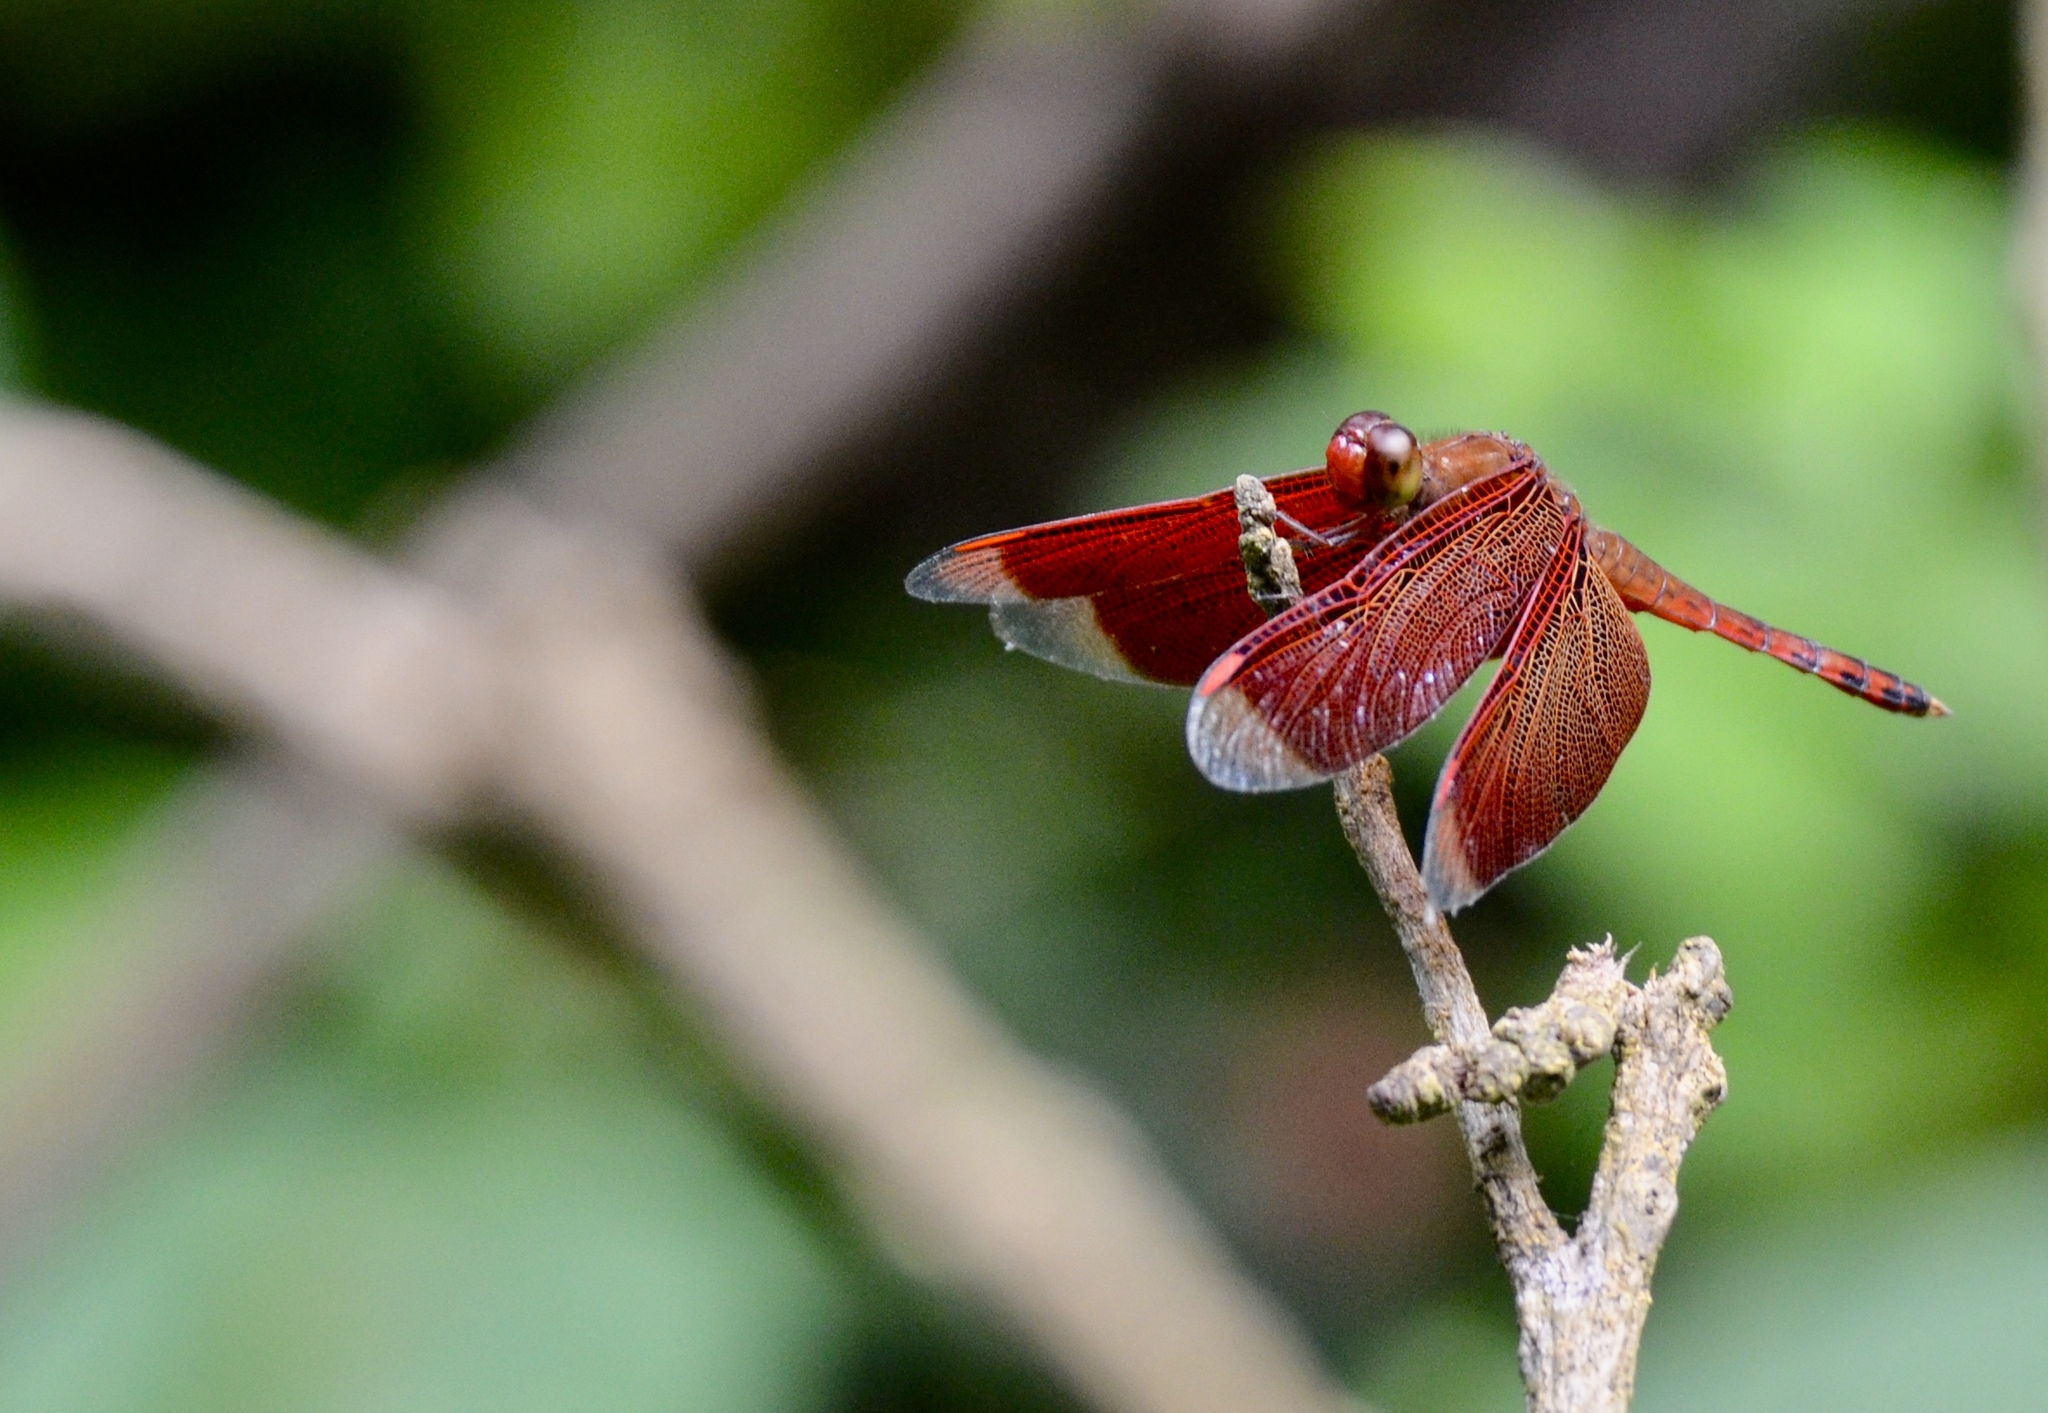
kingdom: Animalia
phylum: Arthropoda
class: Insecta
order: Odonata
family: Libellulidae
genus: Neurothemis
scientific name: Neurothemis terminata
